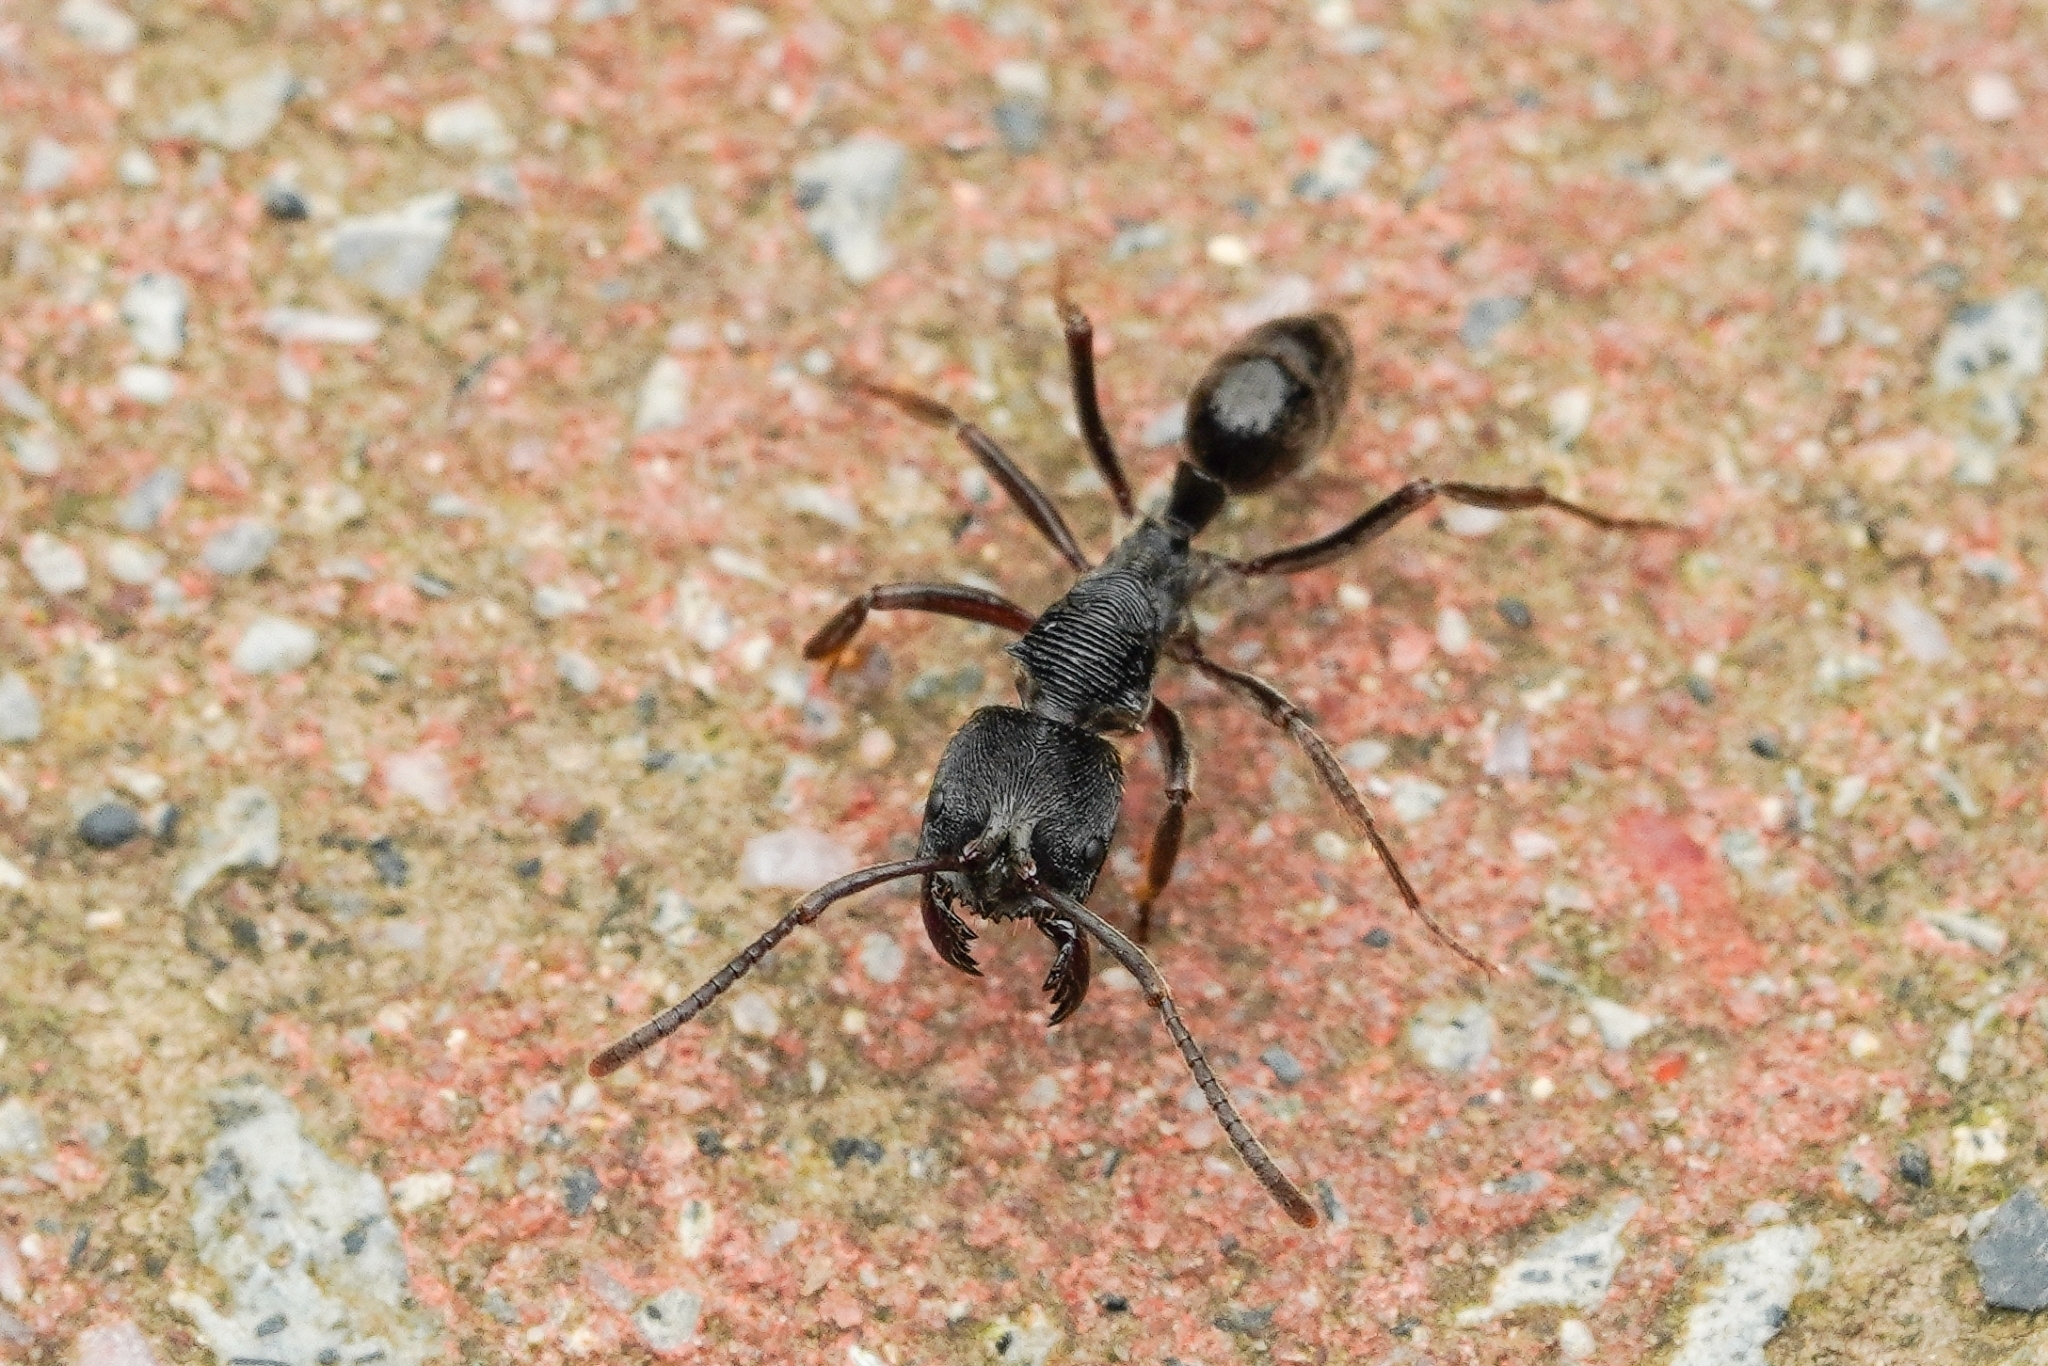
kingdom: Animalia
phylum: Arthropoda
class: Insecta
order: Hymenoptera
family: Formicidae
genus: Odontoponera
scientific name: Odontoponera denticulata
